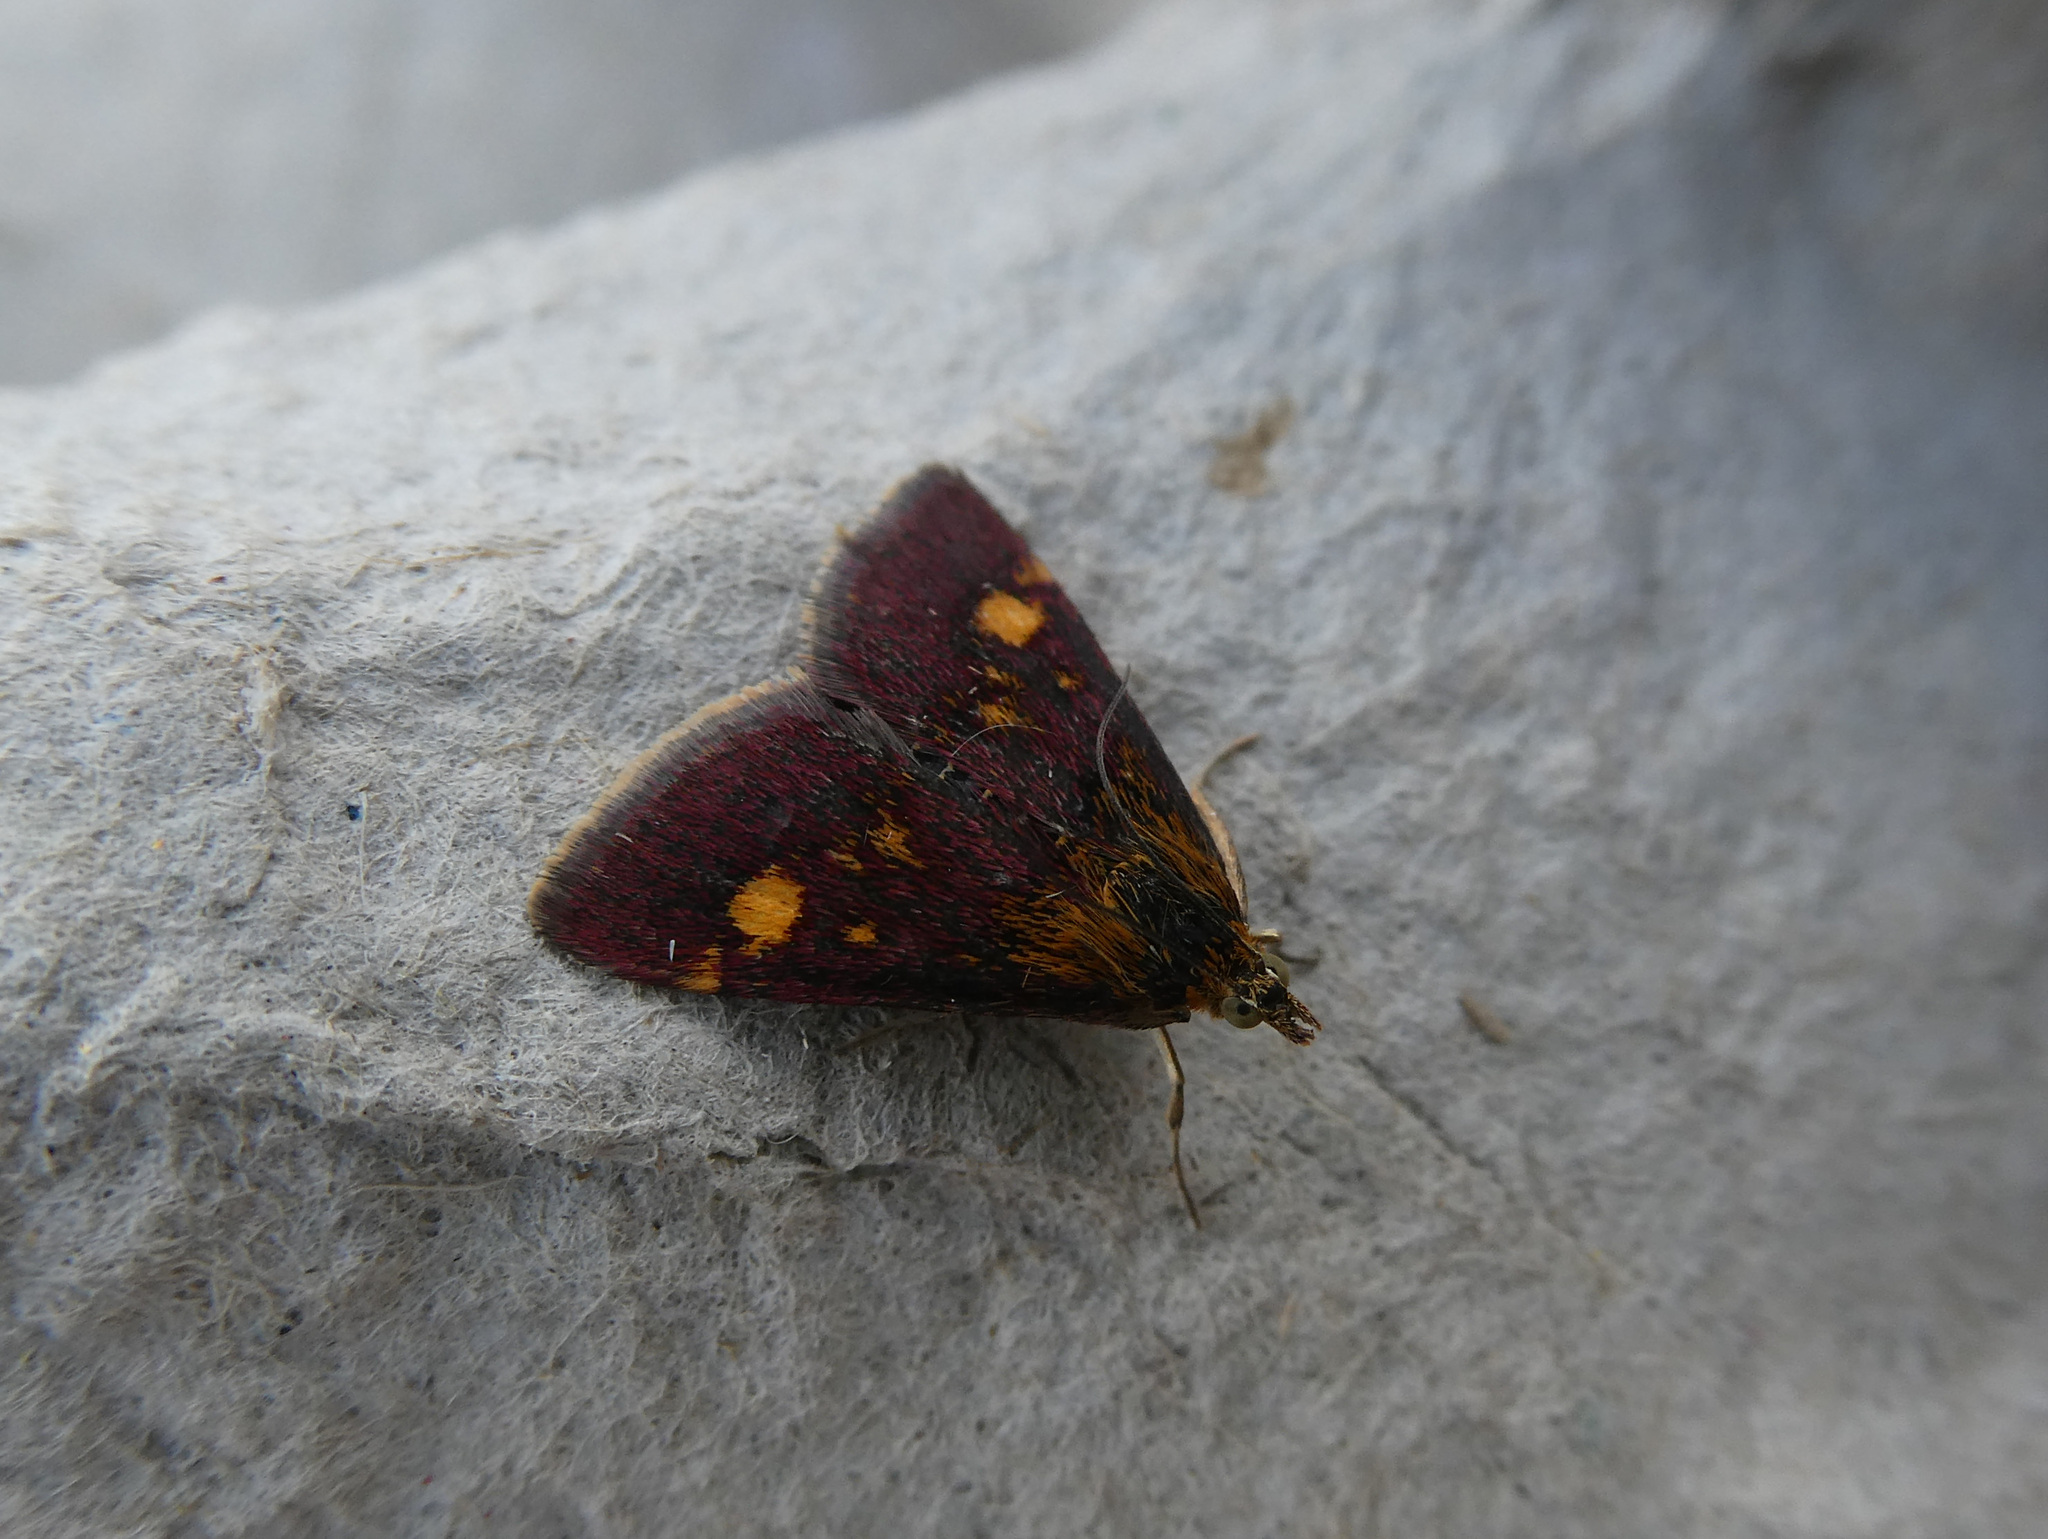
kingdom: Animalia
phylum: Arthropoda
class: Insecta
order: Lepidoptera
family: Crambidae
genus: Pyrausta
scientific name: Pyrausta aurata
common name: Small purple & gold
